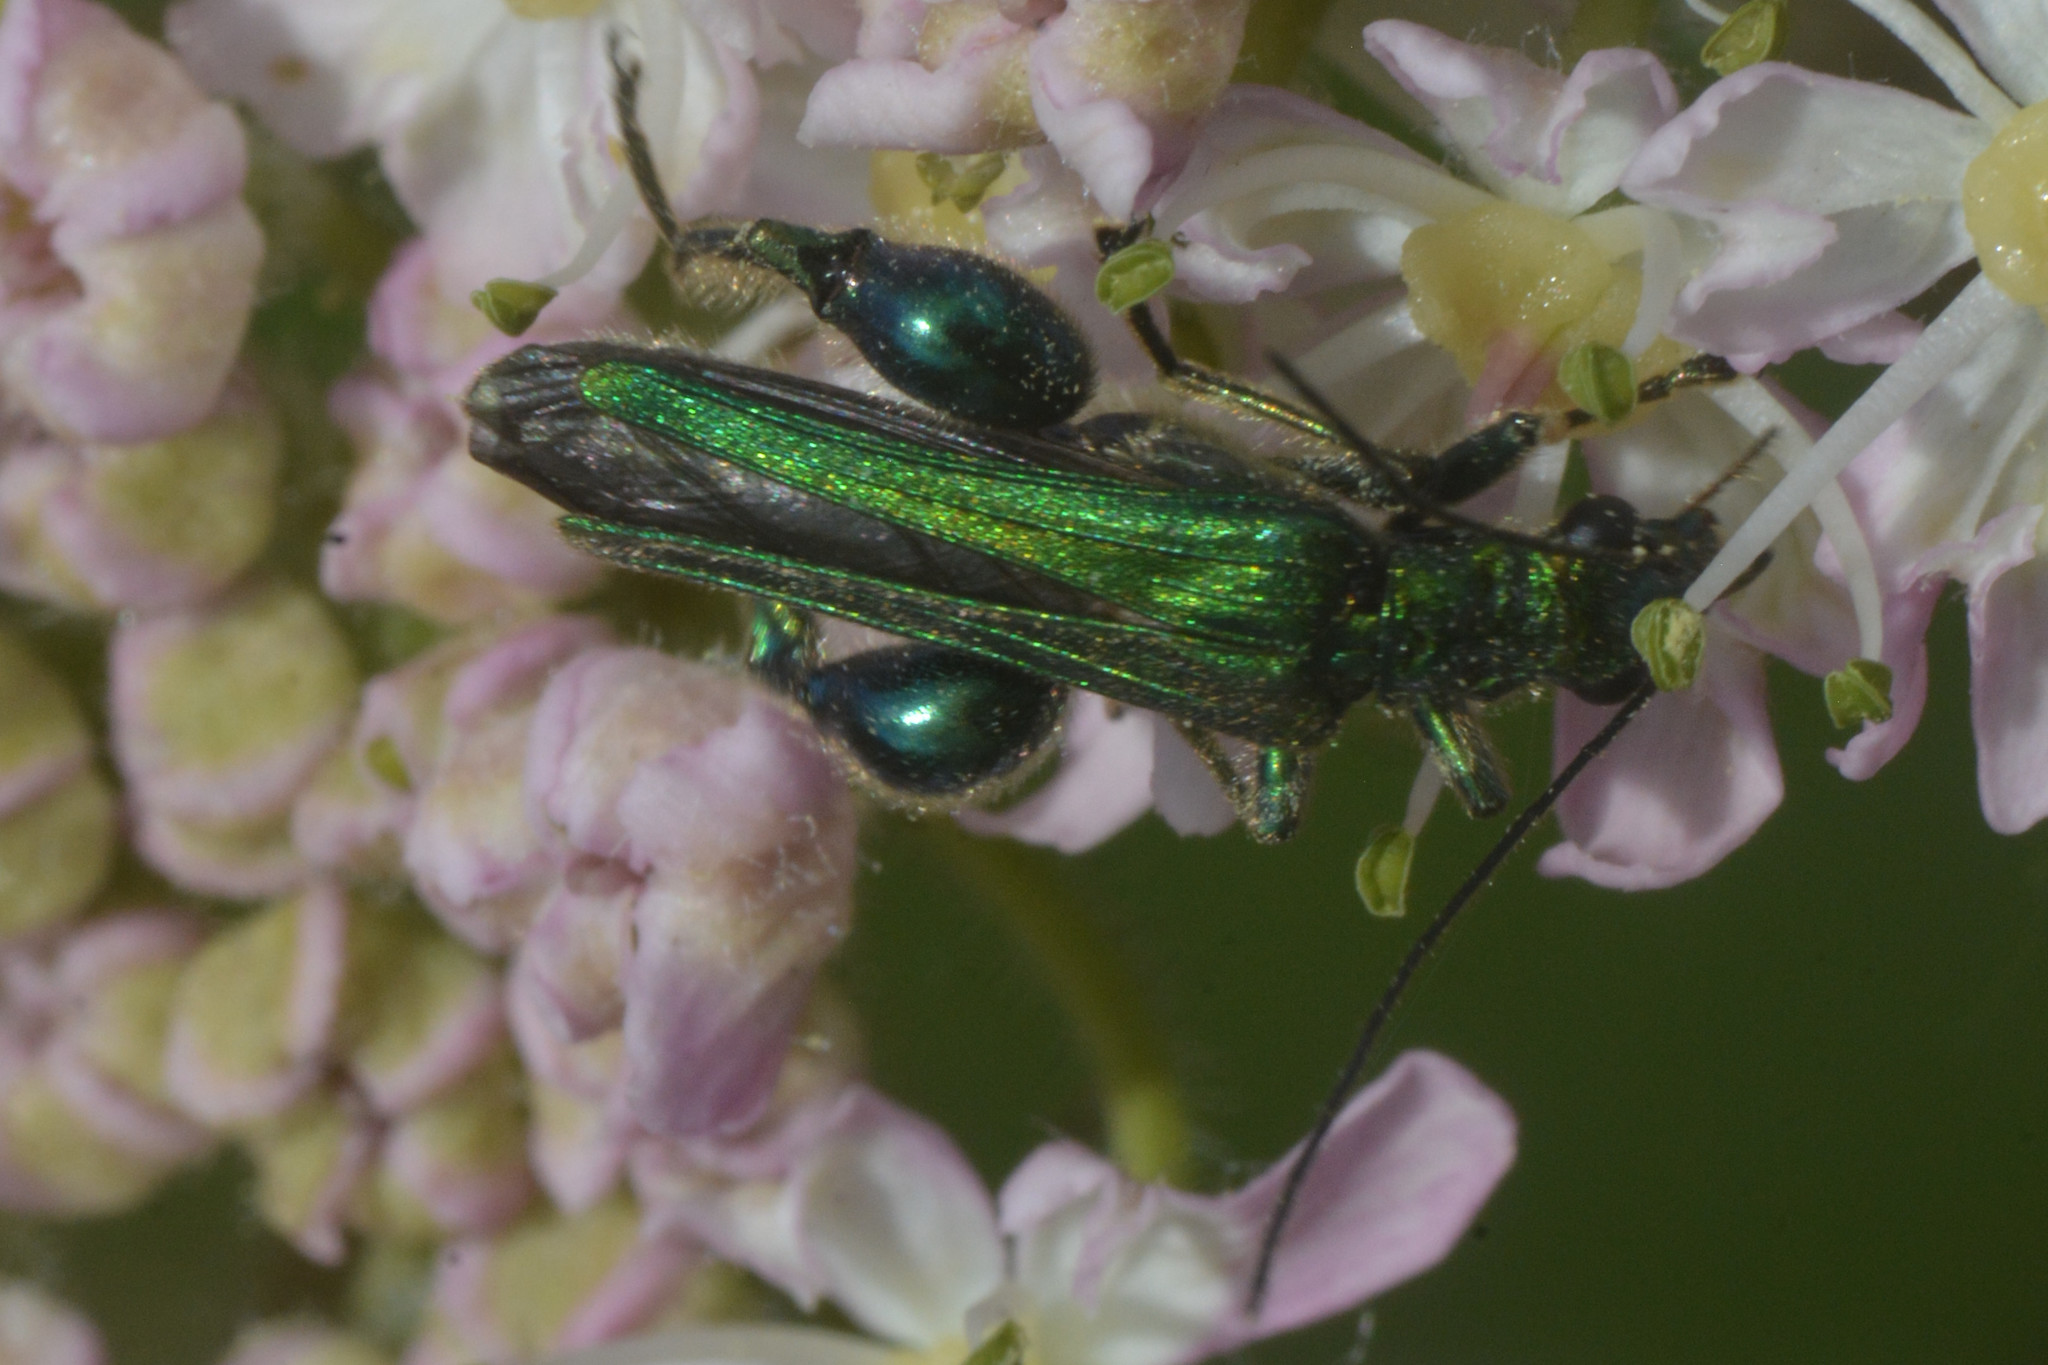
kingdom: Animalia
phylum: Arthropoda
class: Insecta
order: Coleoptera
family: Oedemeridae
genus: Oedemera
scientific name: Oedemera nobilis
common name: Swollen-thighed beetle
